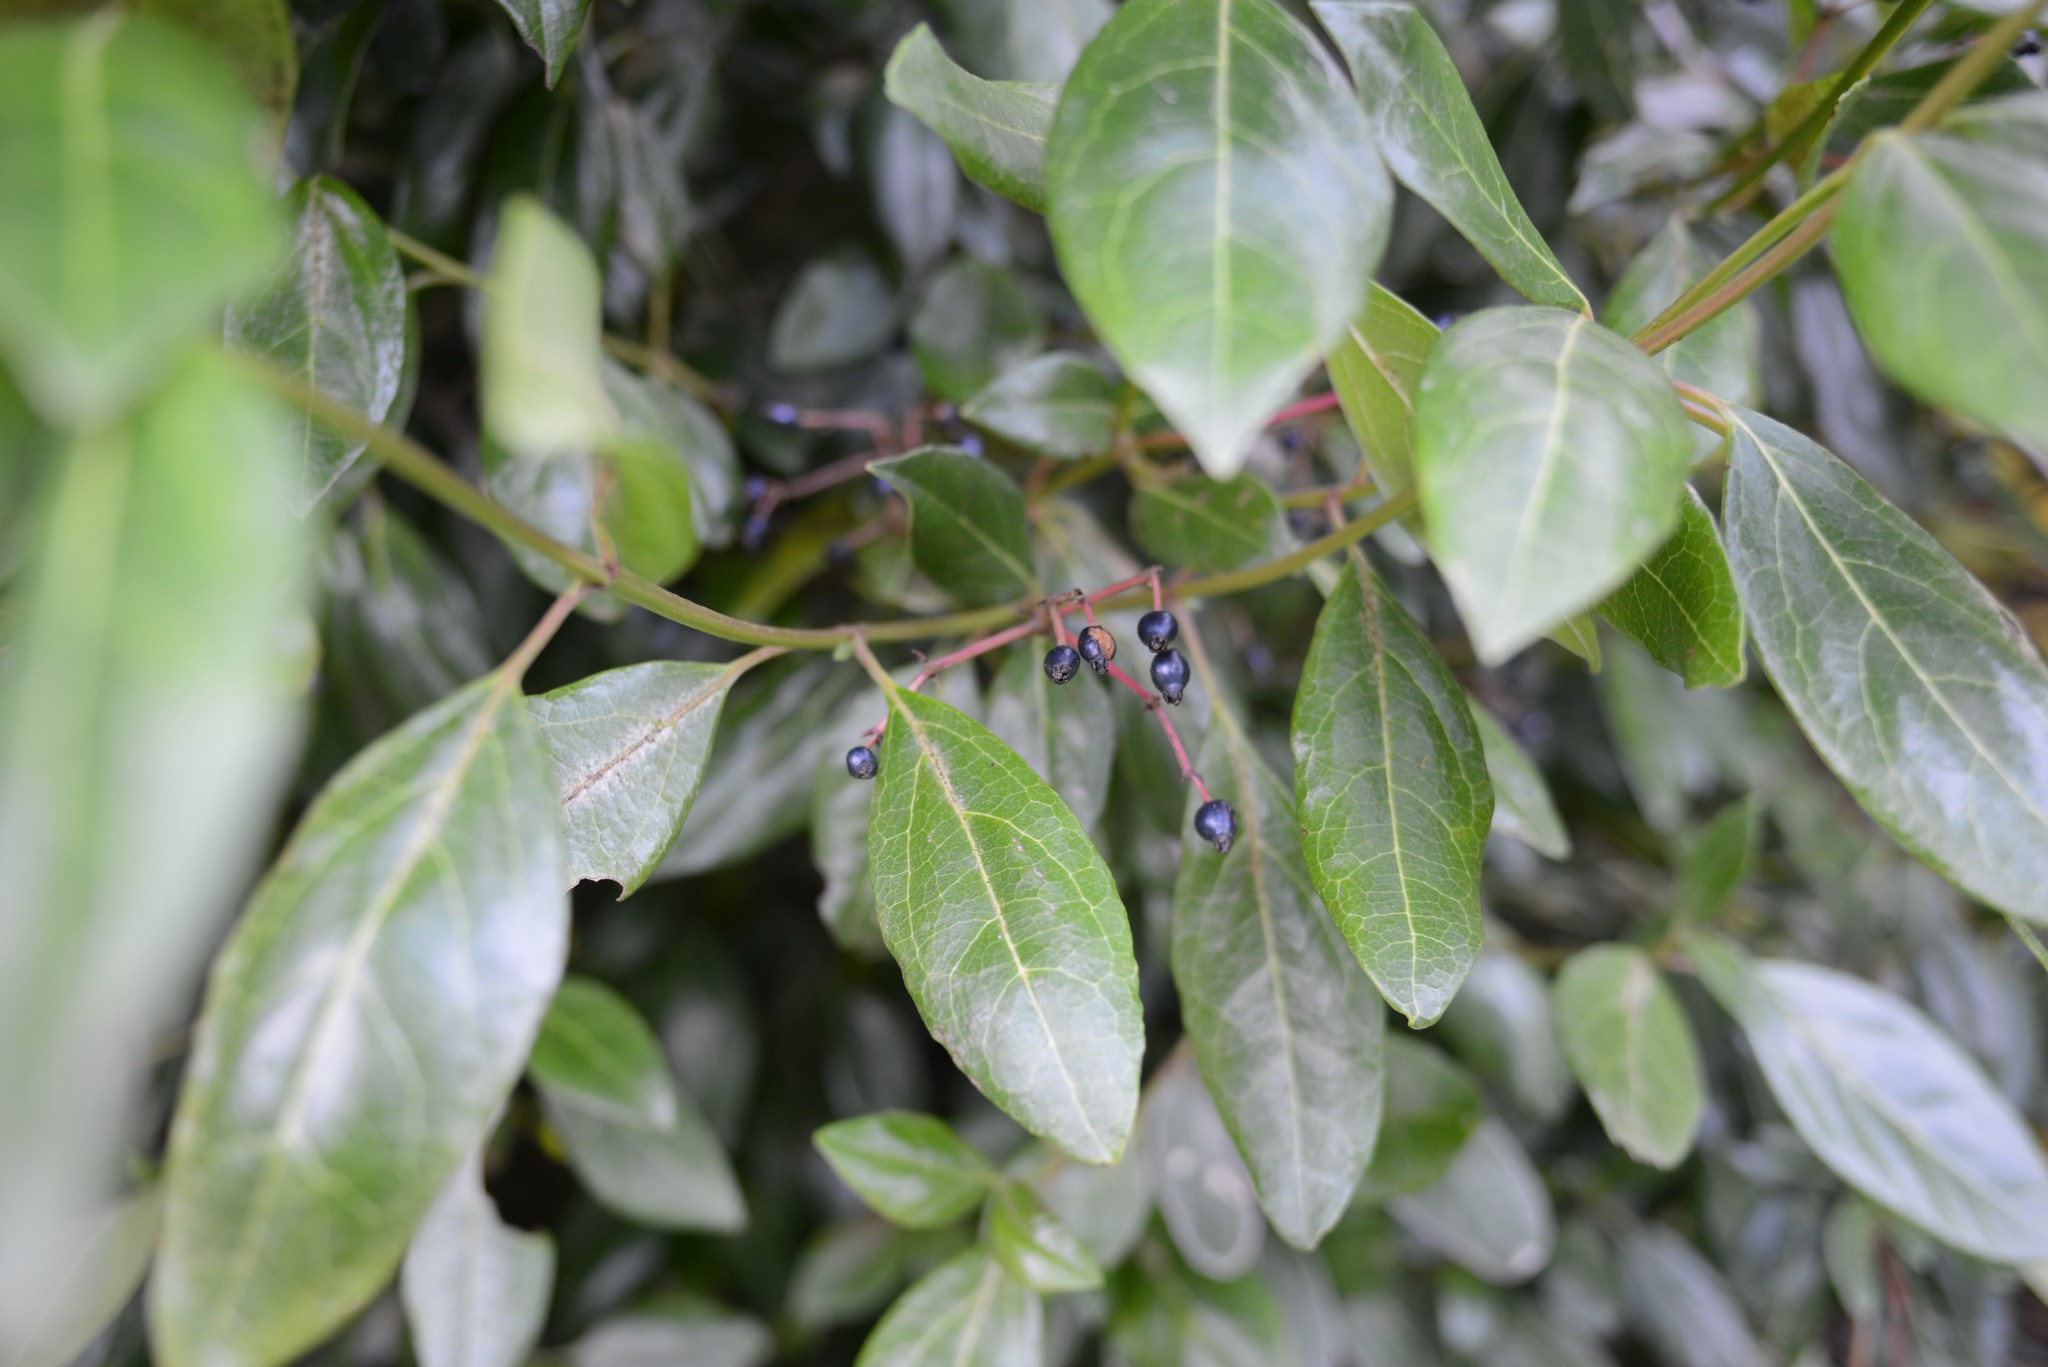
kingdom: Plantae
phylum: Tracheophyta
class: Magnoliopsida
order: Dipsacales
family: Viburnaceae
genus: Viburnum
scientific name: Viburnum tinus
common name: Laurustinus
